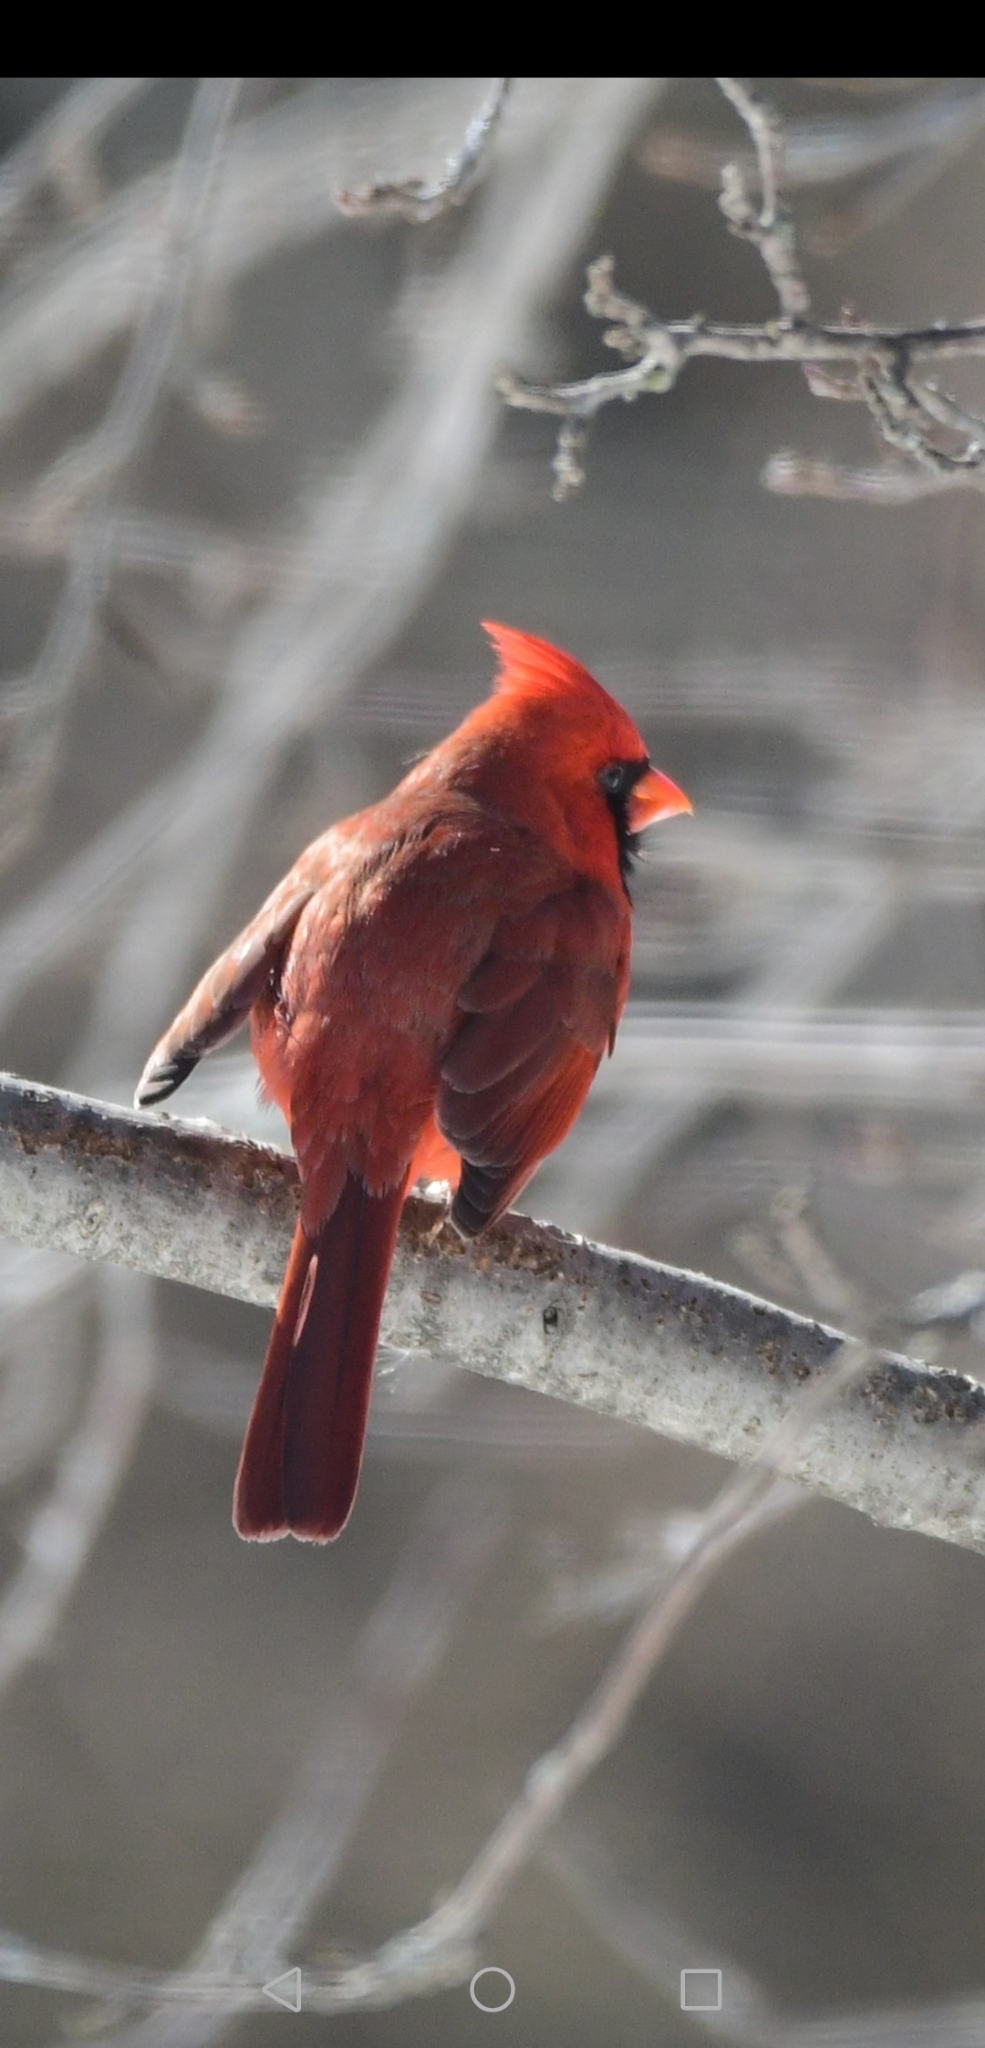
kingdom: Animalia
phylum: Chordata
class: Aves
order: Passeriformes
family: Cardinalidae
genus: Cardinalis
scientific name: Cardinalis cardinalis
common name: Northern cardinal
